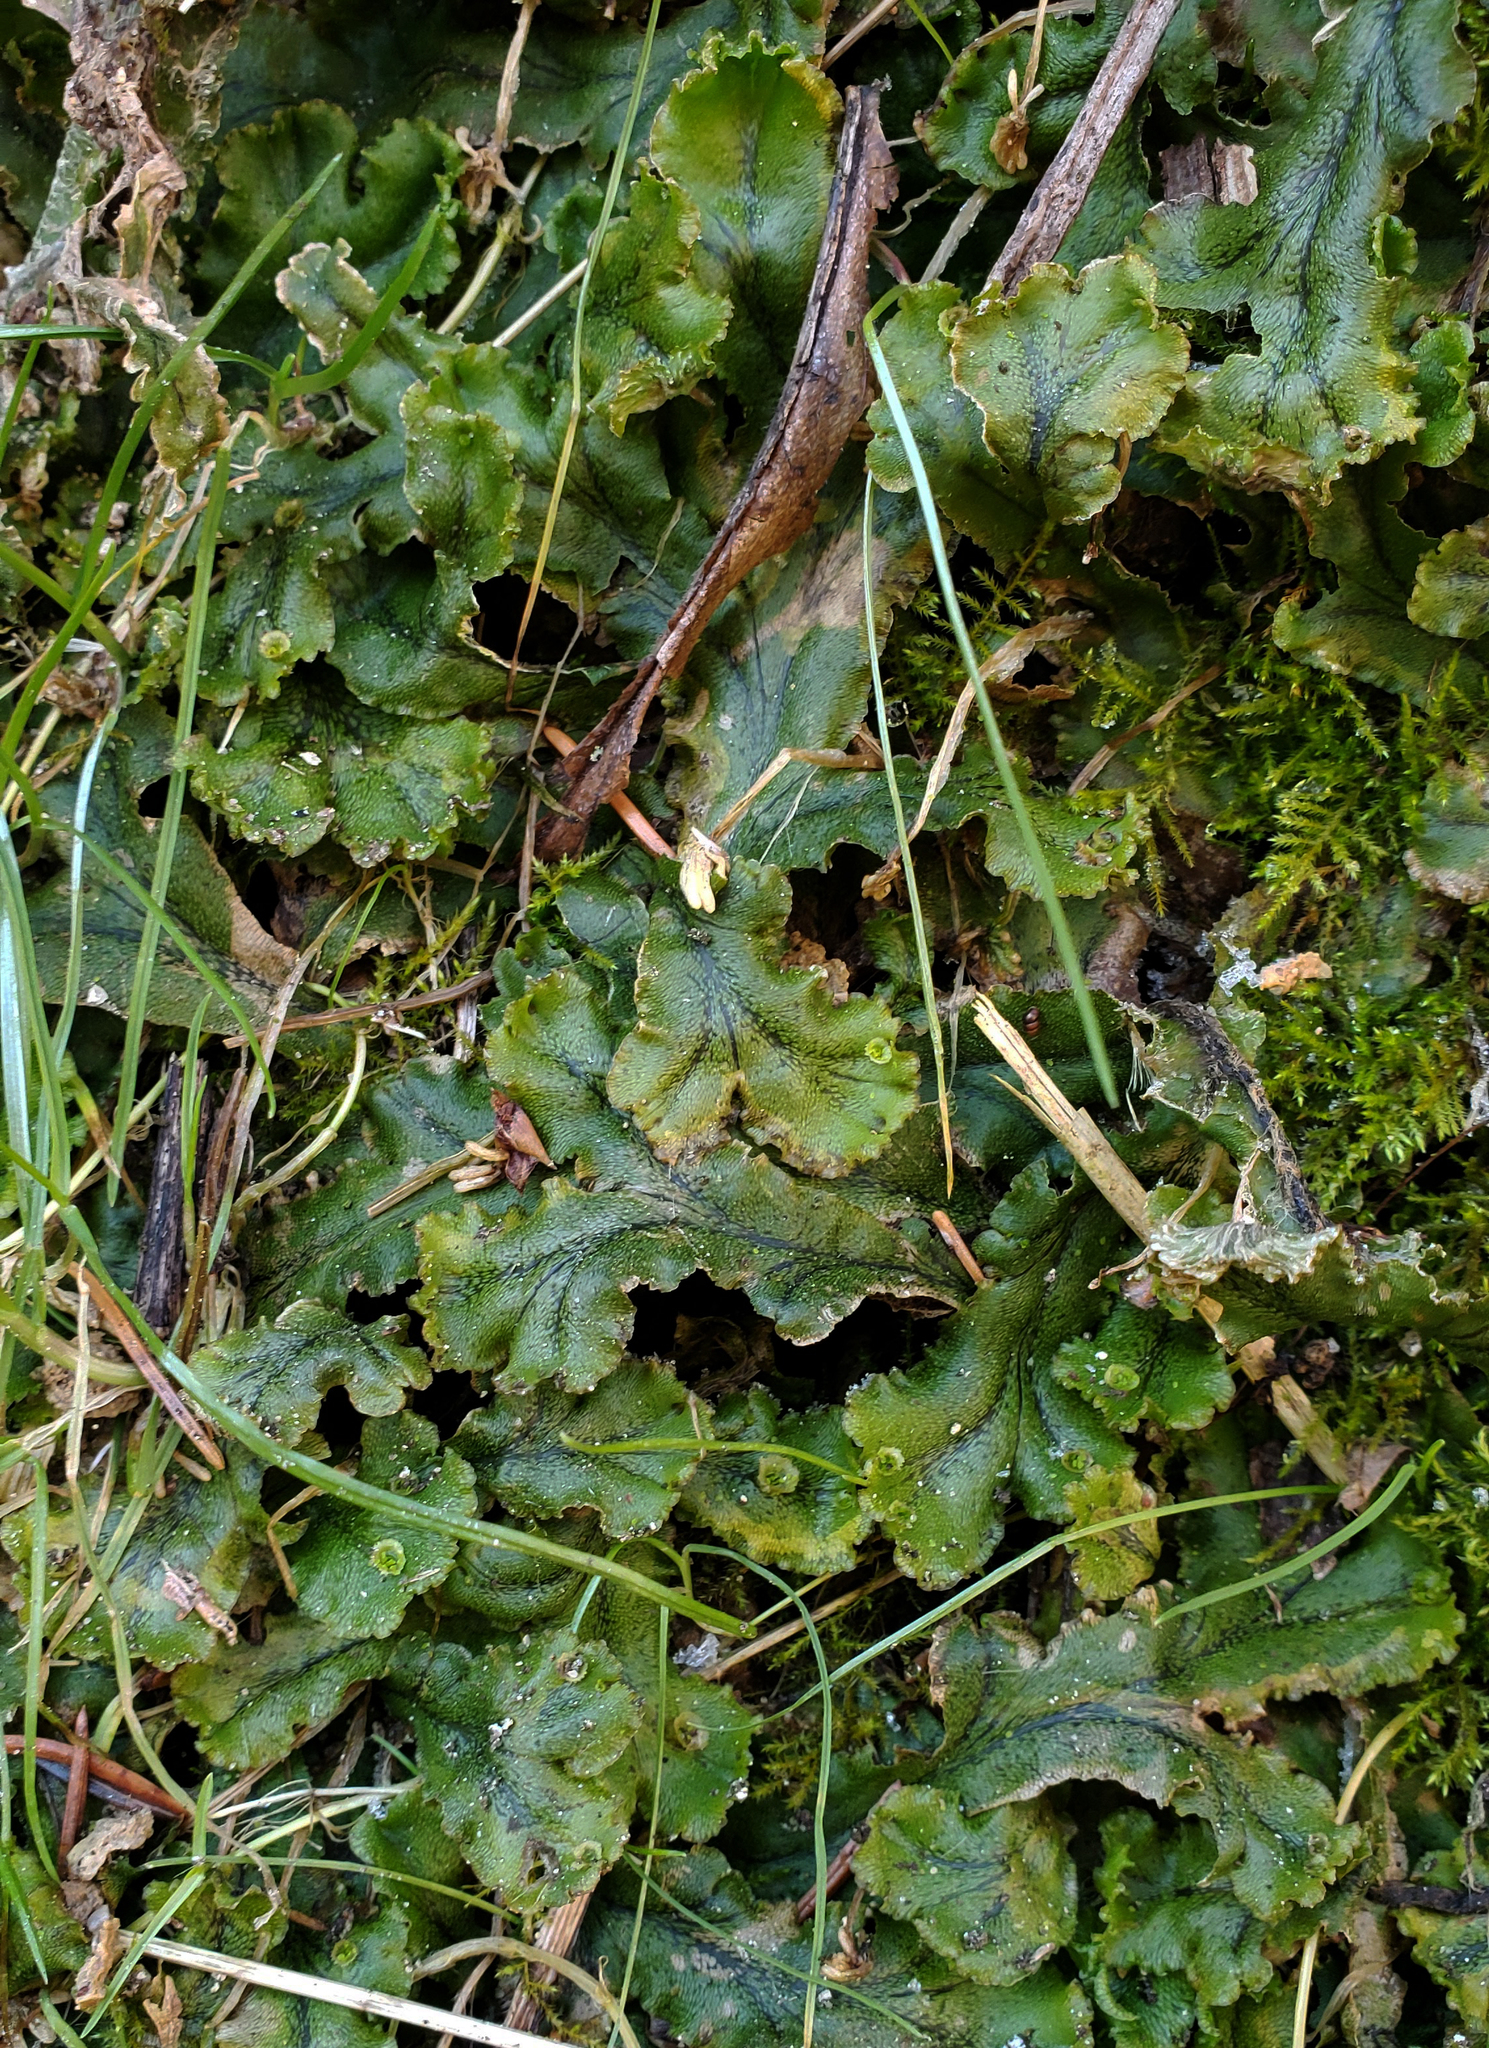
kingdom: Plantae
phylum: Marchantiophyta
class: Marchantiopsida
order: Marchantiales
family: Marchantiaceae
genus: Marchantia
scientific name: Marchantia polymorpha
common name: Common liverwort
